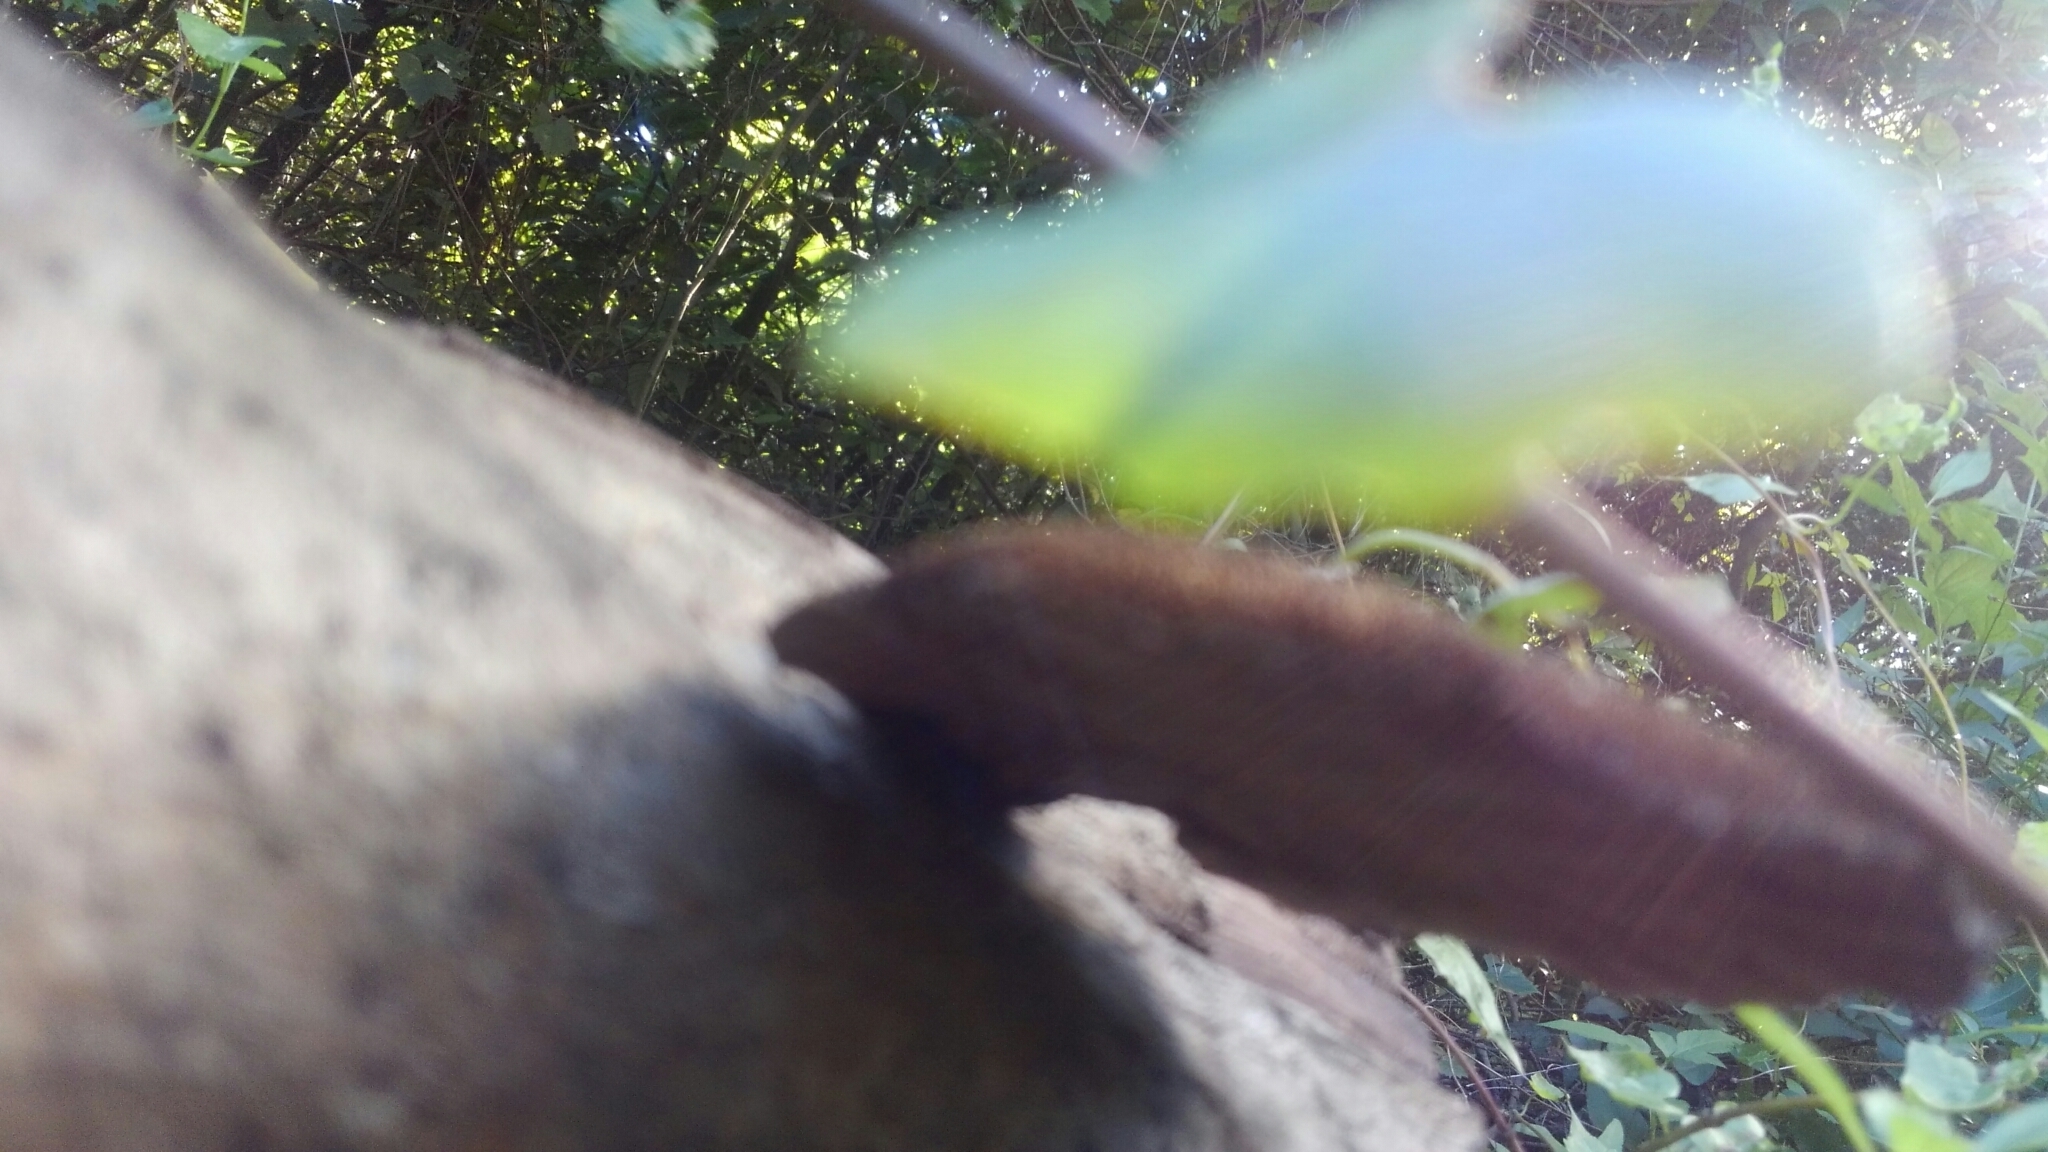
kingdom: Fungi
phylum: Basidiomycota
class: Agaricomycetes
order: Polyporales
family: Cerrenaceae
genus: Cerrena
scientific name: Cerrena hydnoides
